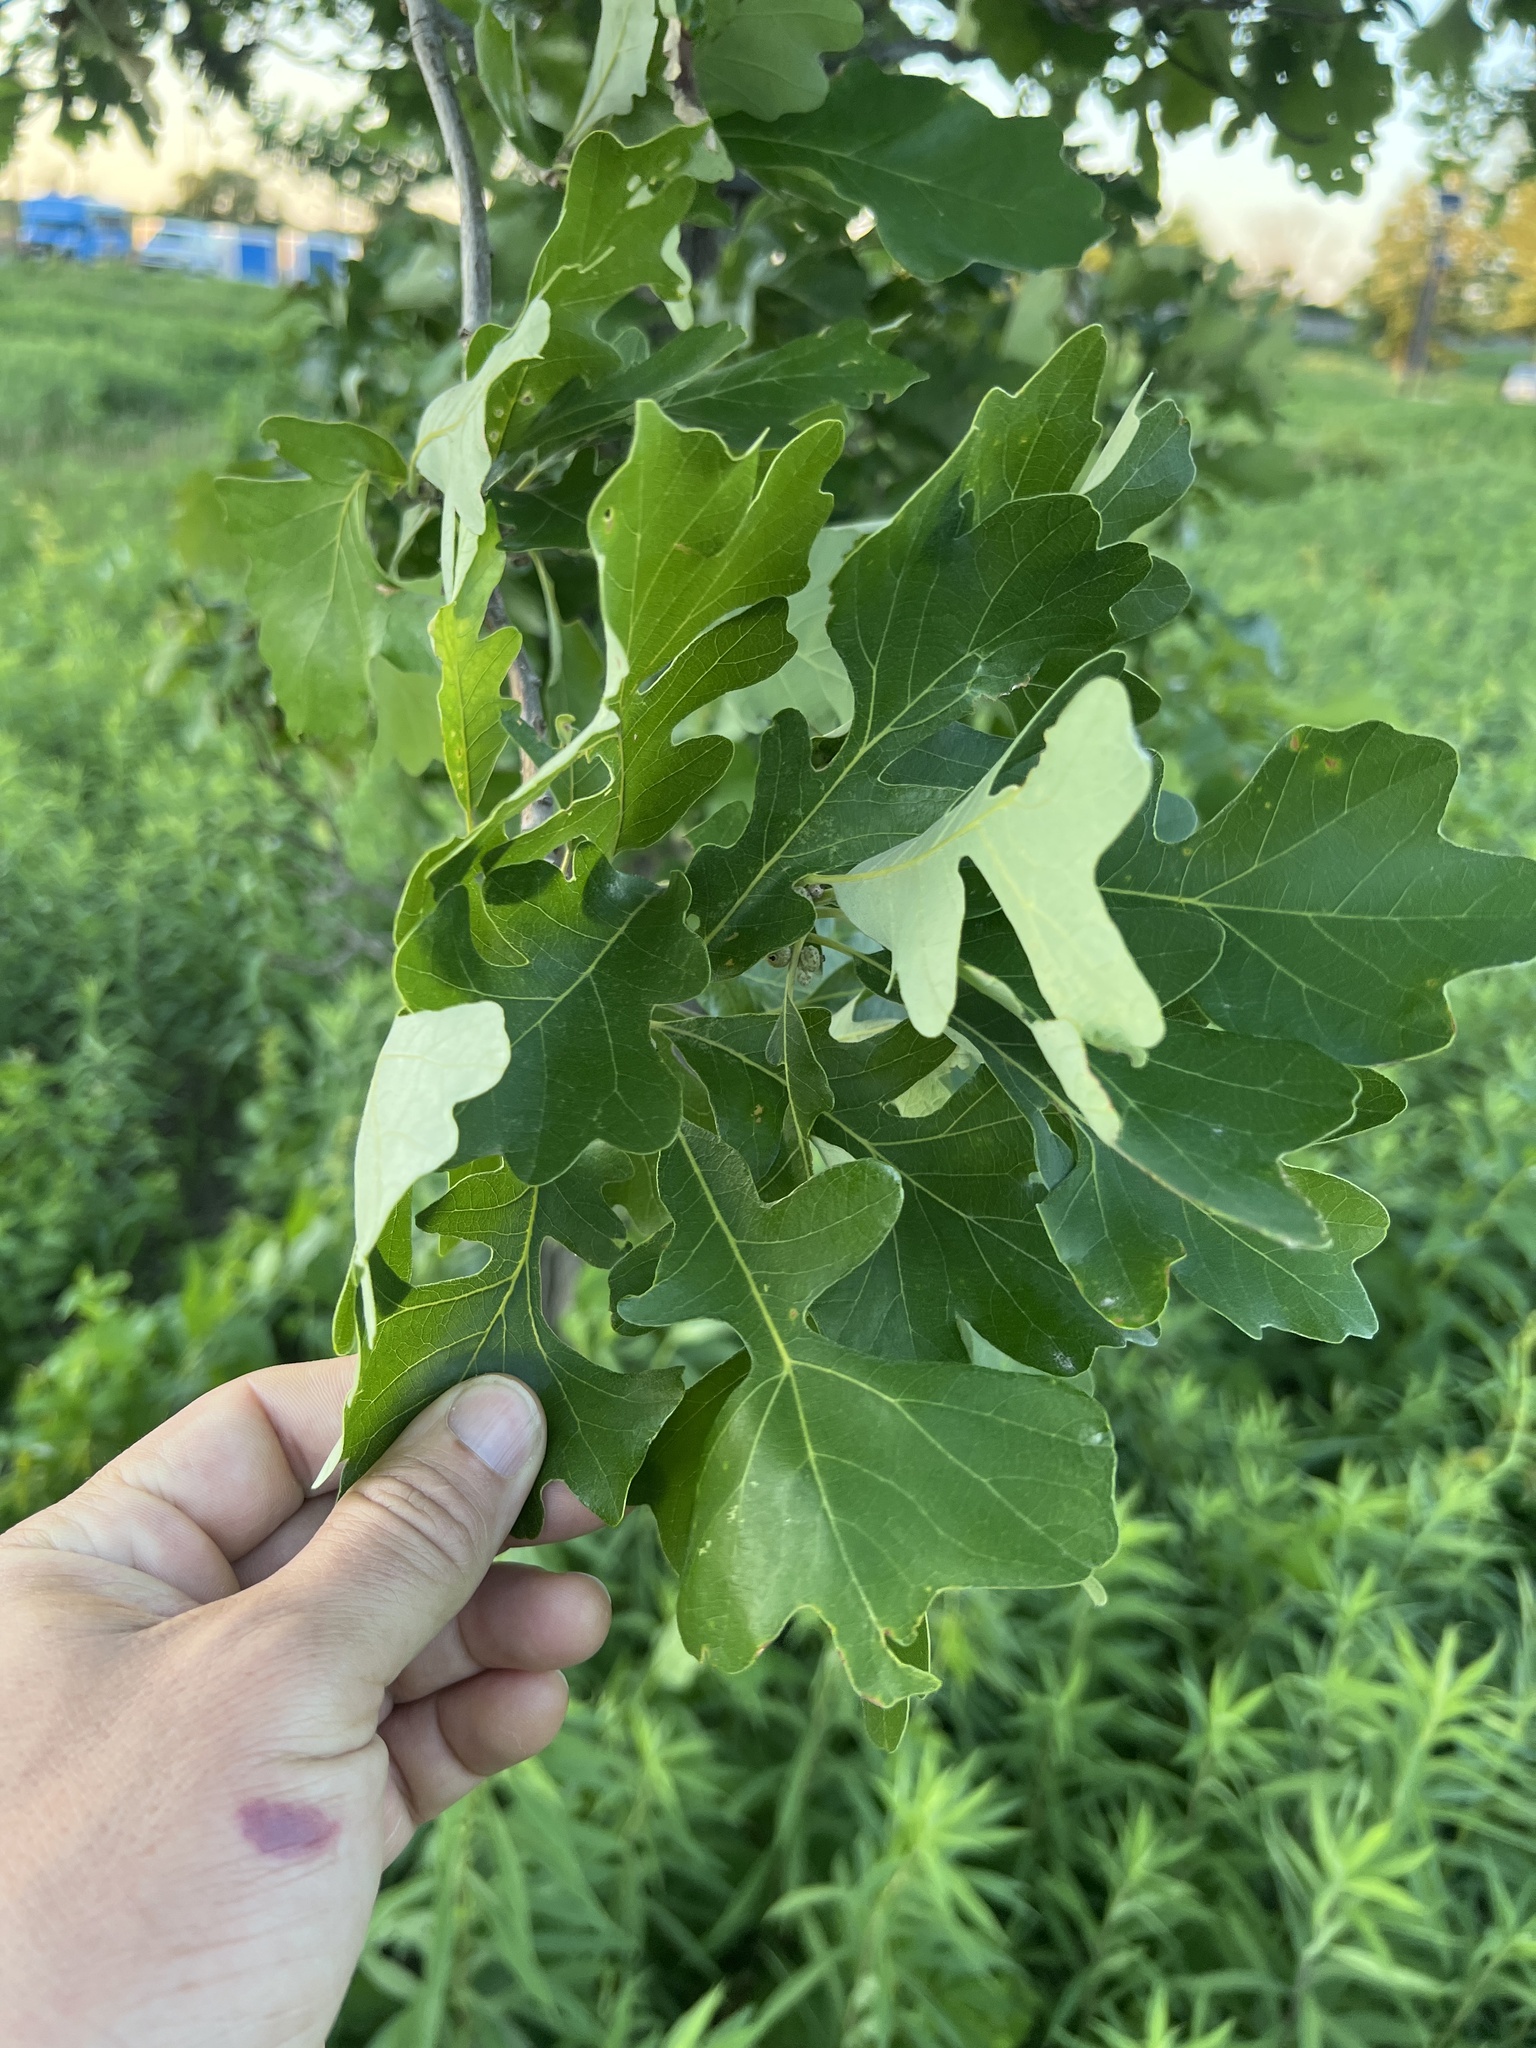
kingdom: Plantae
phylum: Tracheophyta
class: Magnoliopsida
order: Fagales
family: Fagaceae
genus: Quercus
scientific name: Quercus macrocarpa
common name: Bur oak
